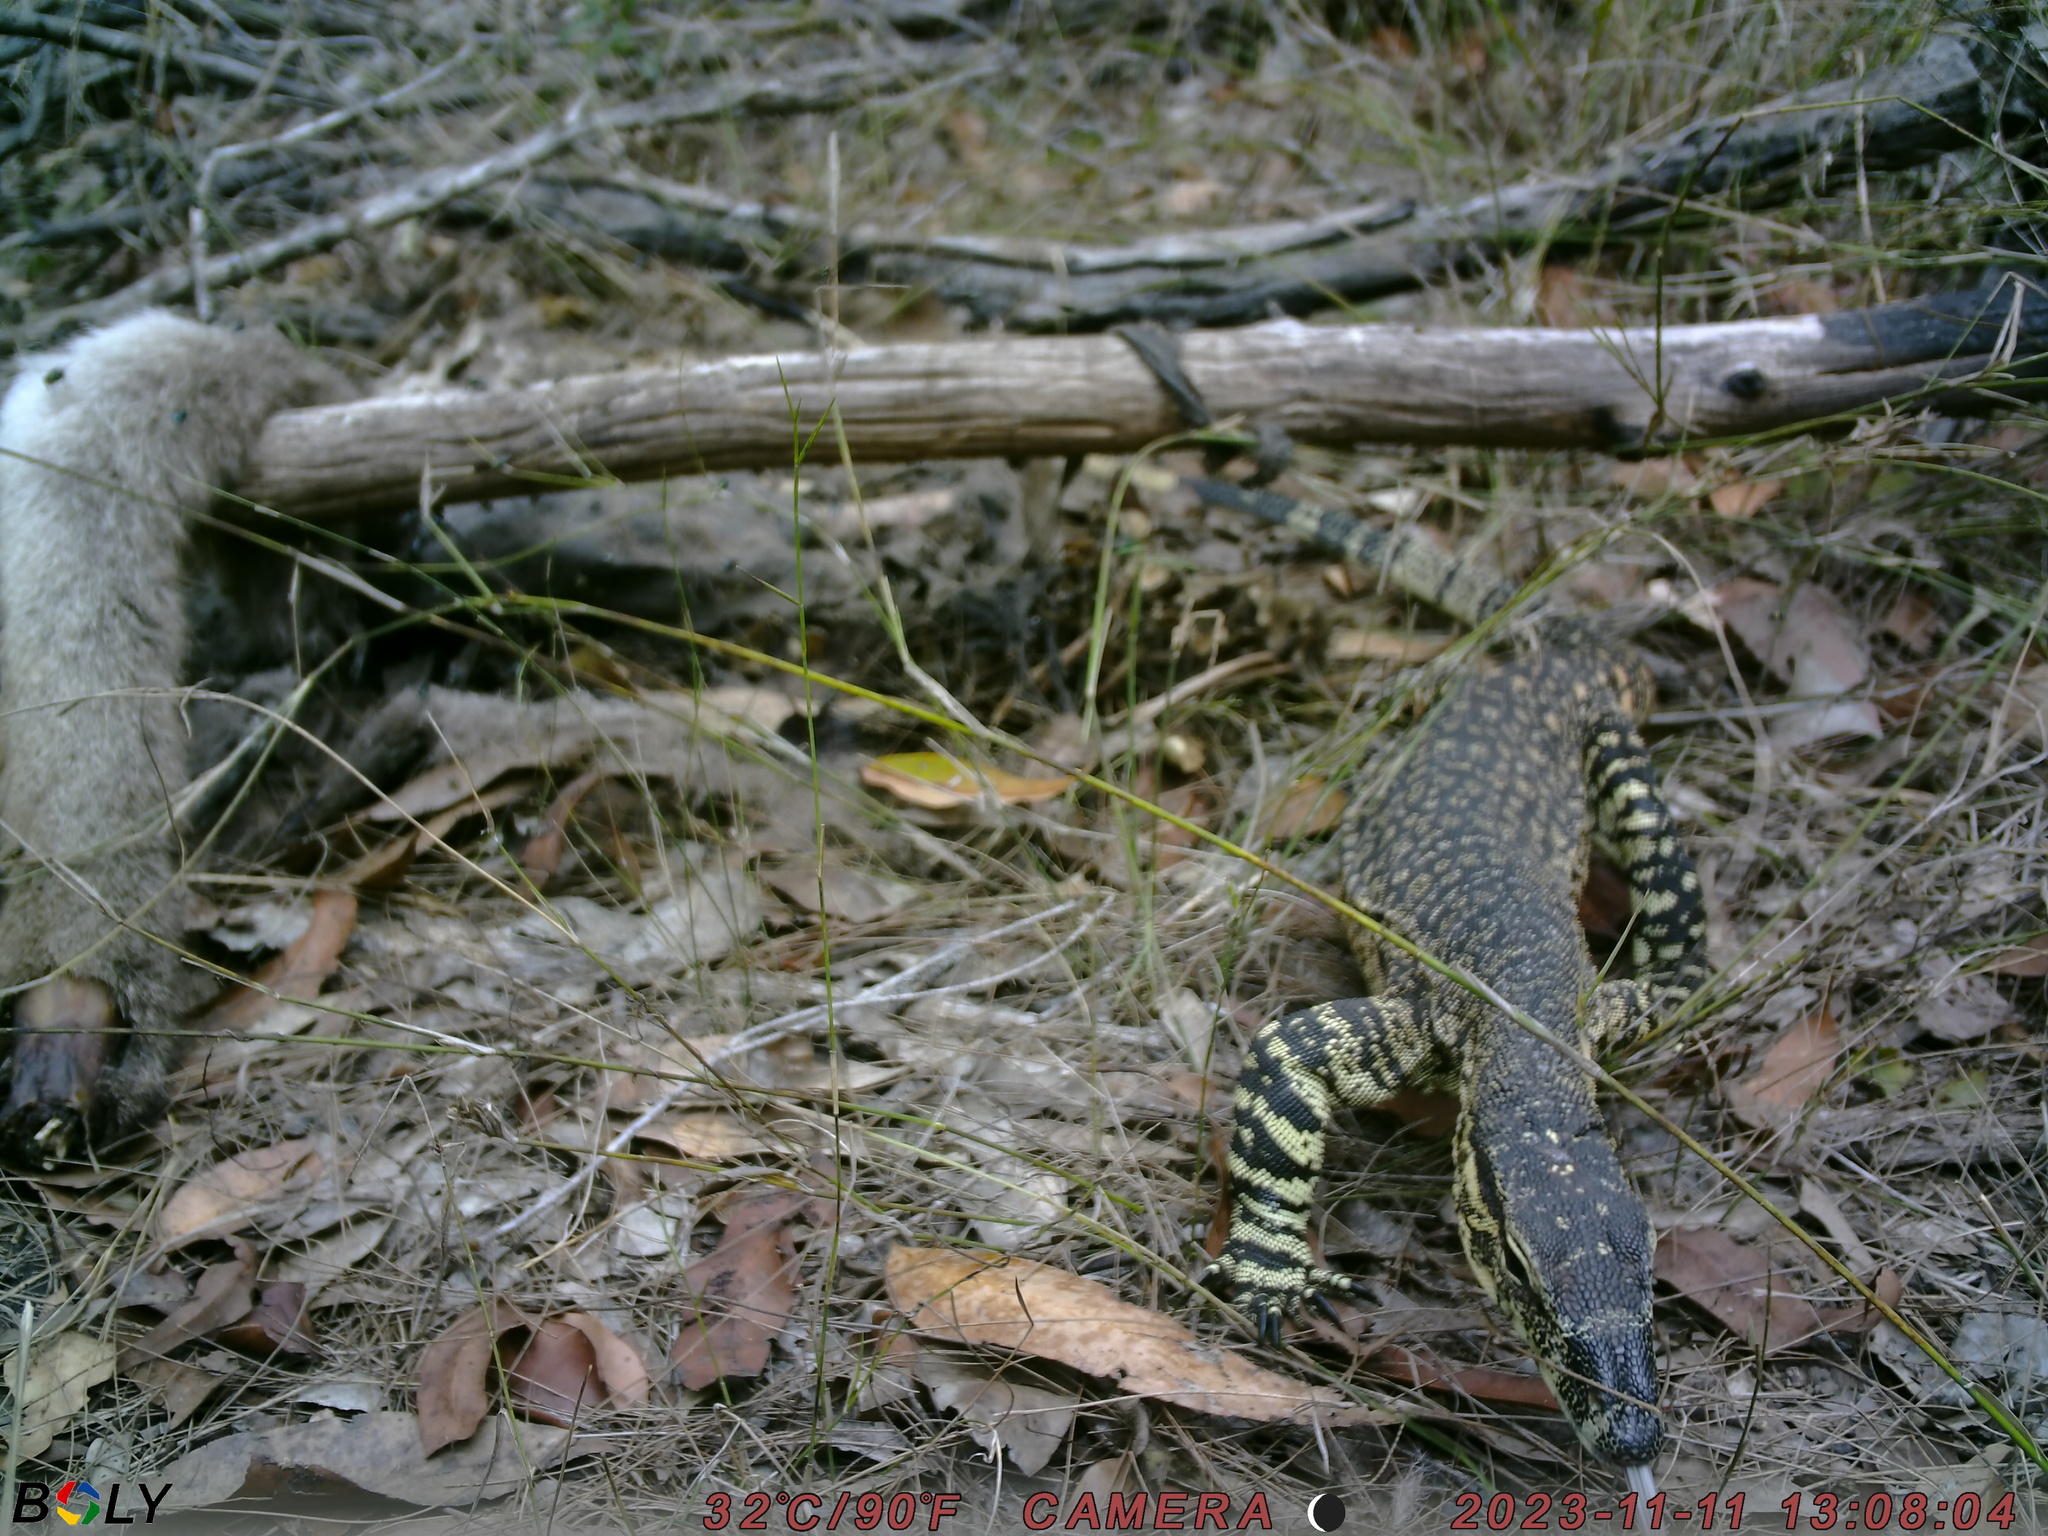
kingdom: Animalia
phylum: Chordata
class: Squamata
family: Varanidae
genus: Varanus
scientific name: Varanus varius
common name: Lace monitor
